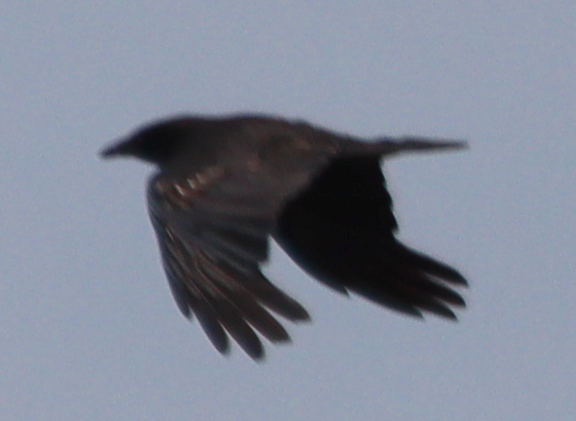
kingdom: Animalia
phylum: Chordata
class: Aves
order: Passeriformes
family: Corvidae
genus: Corvus
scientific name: Corvus corone
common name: Carrion crow
